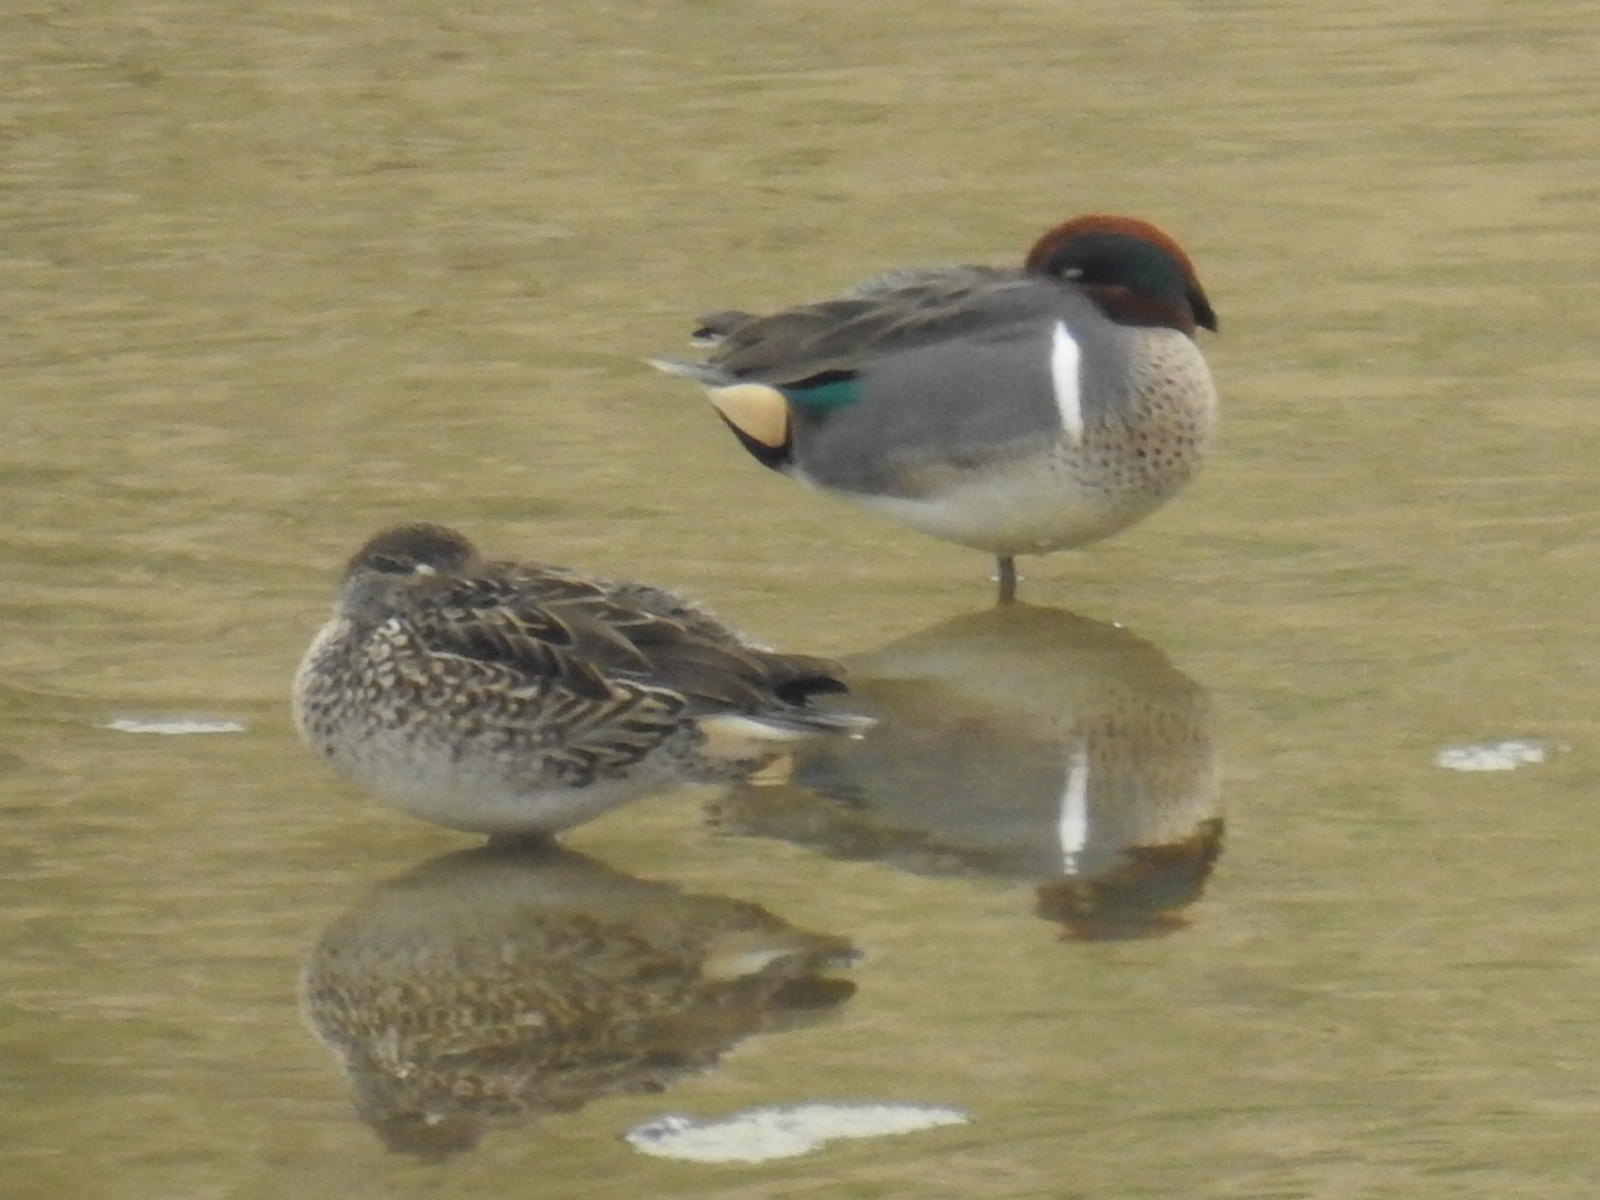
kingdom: Animalia
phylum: Chordata
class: Aves
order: Anseriformes
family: Anatidae
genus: Anas
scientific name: Anas crecca
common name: Eurasian teal
